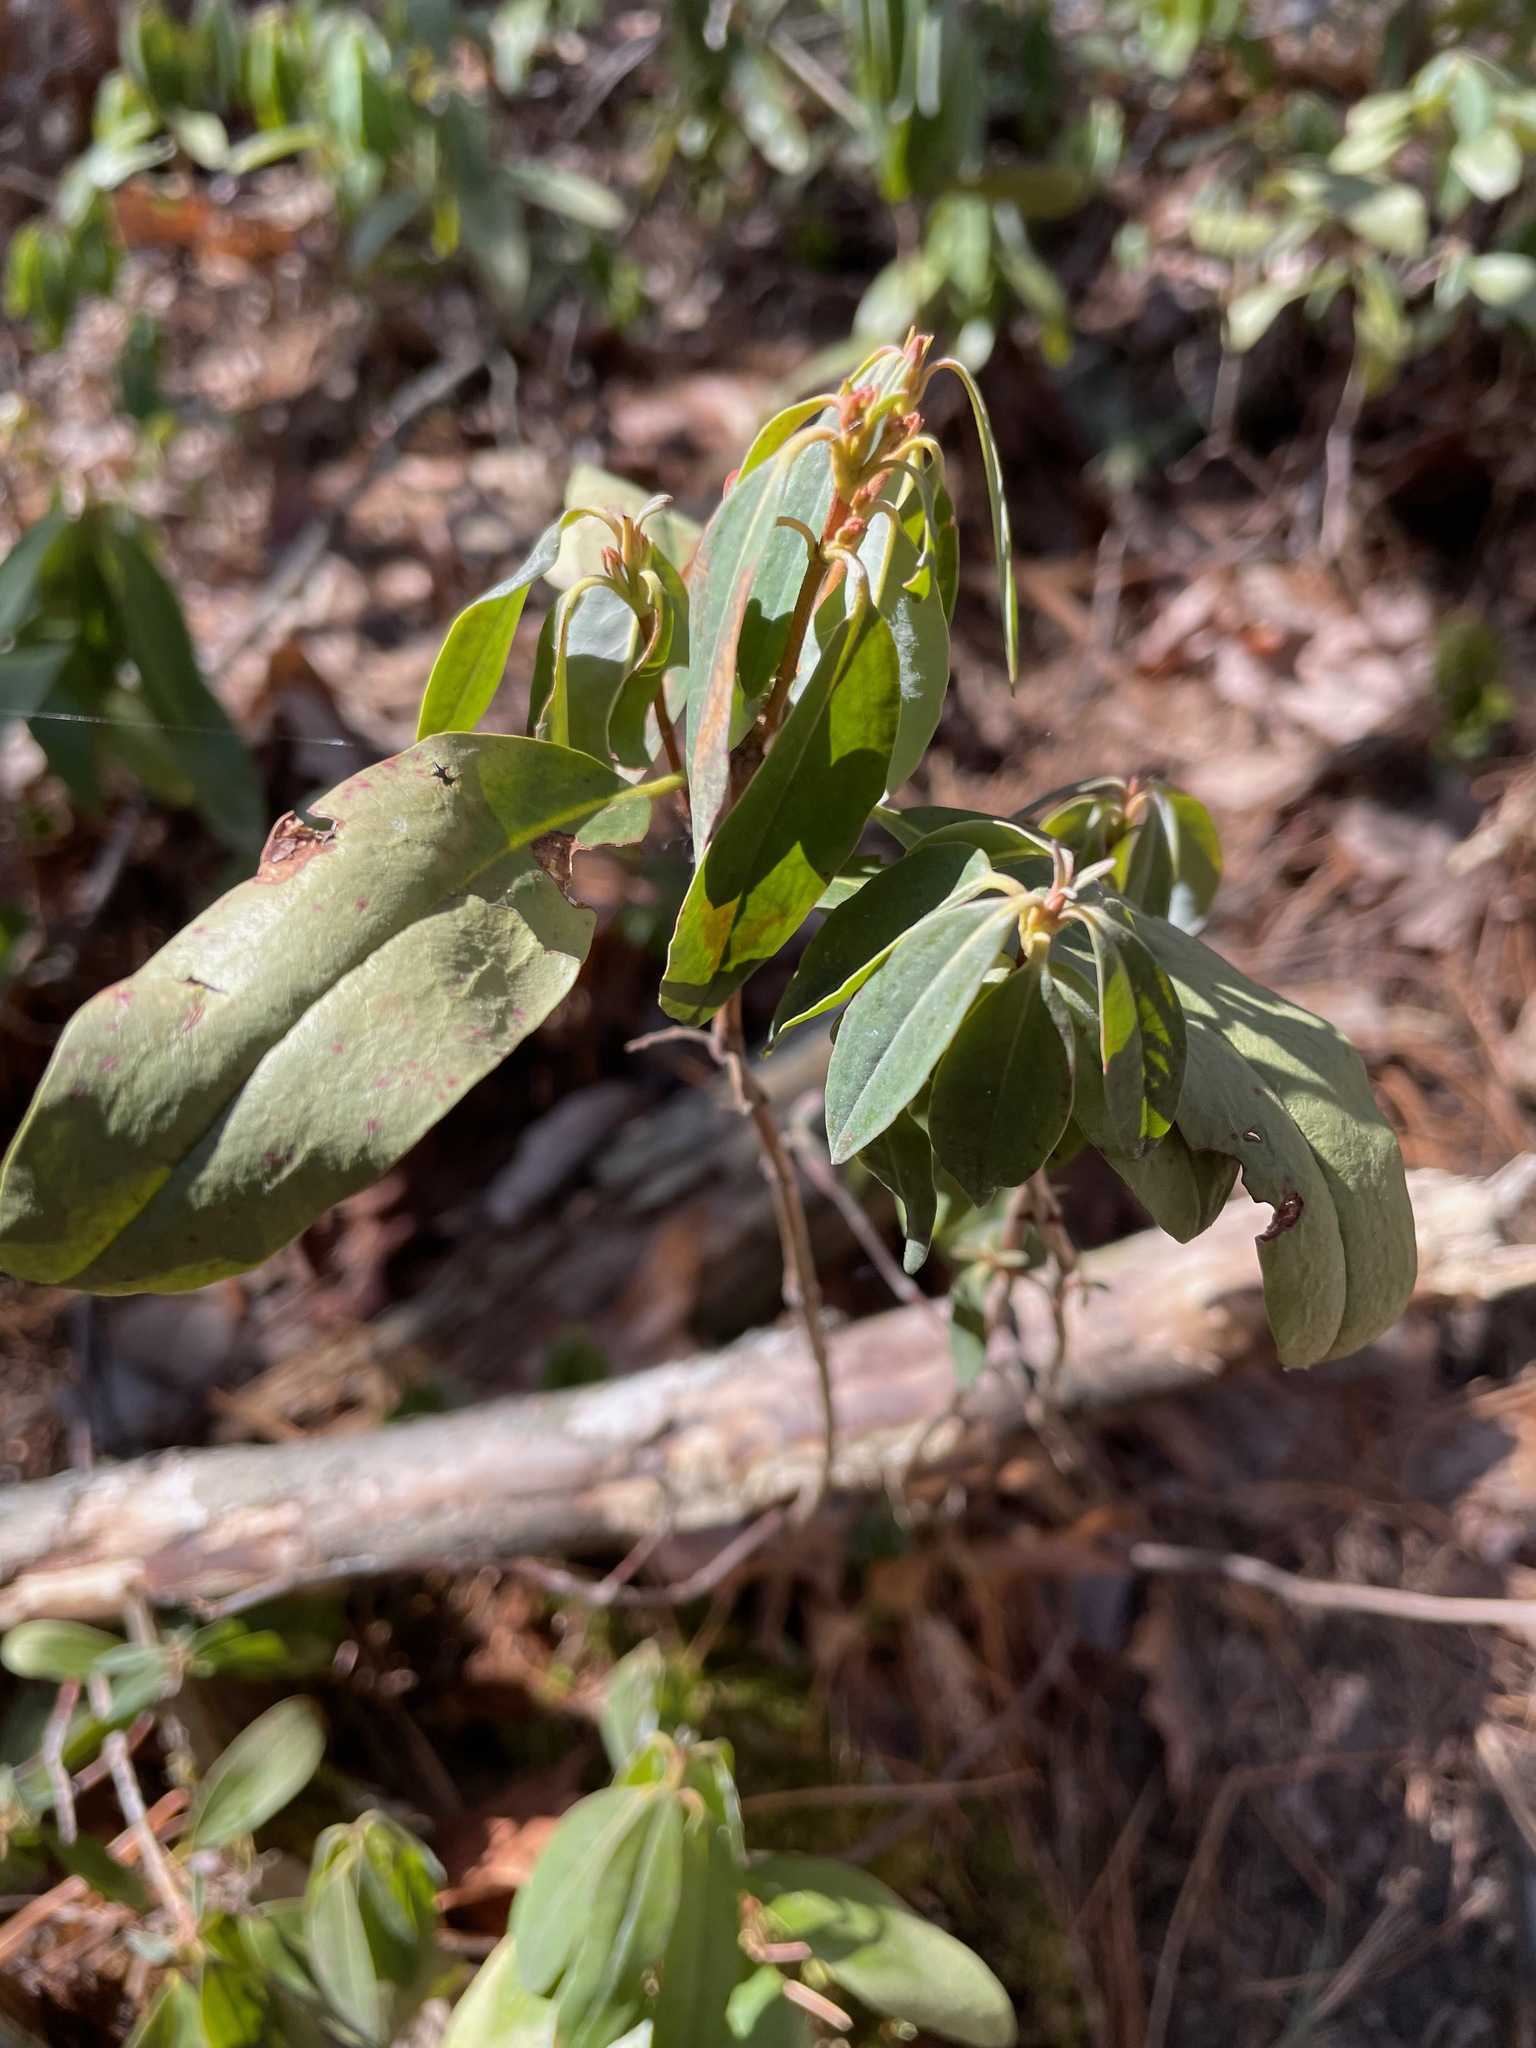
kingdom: Plantae
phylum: Tracheophyta
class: Magnoliopsida
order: Ericales
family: Ericaceae
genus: Kalmia
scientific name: Kalmia angustifolia
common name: Sheep-laurel
